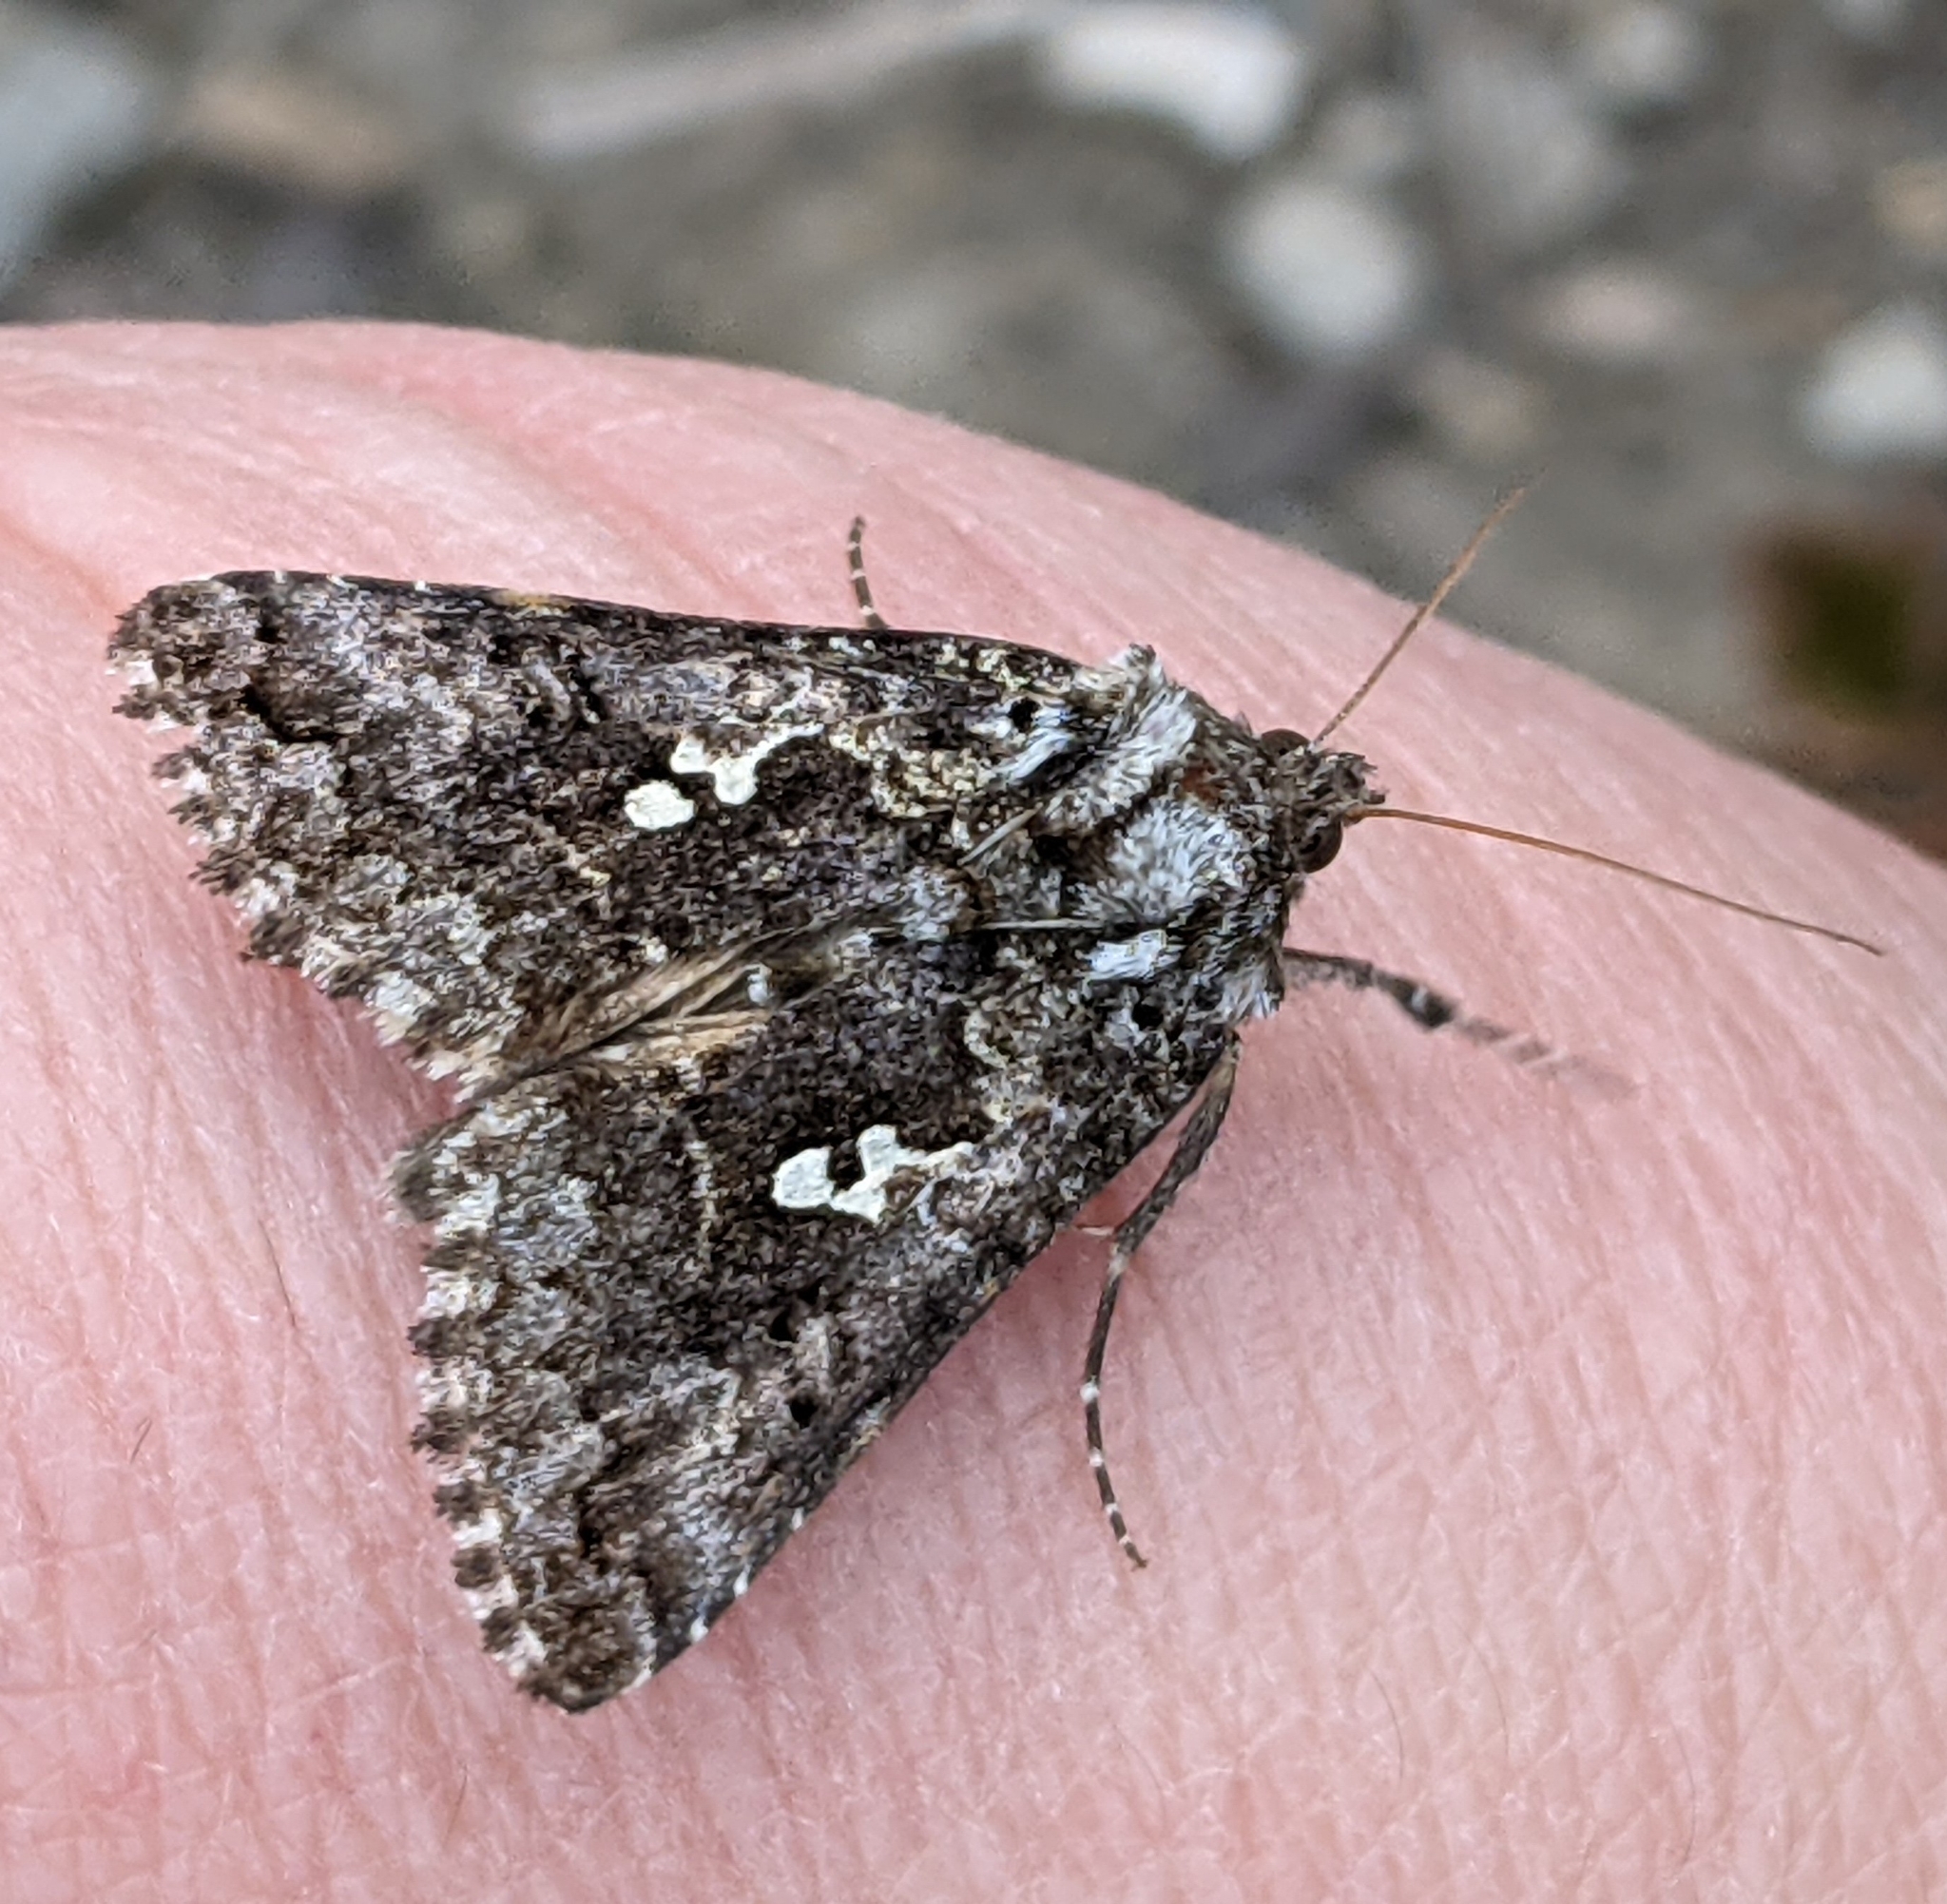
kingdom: Animalia
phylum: Arthropoda
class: Insecta
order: Lepidoptera
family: Noctuidae
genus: Syngrapha
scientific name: Syngrapha abstrusa
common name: Abstruse false looper moth
